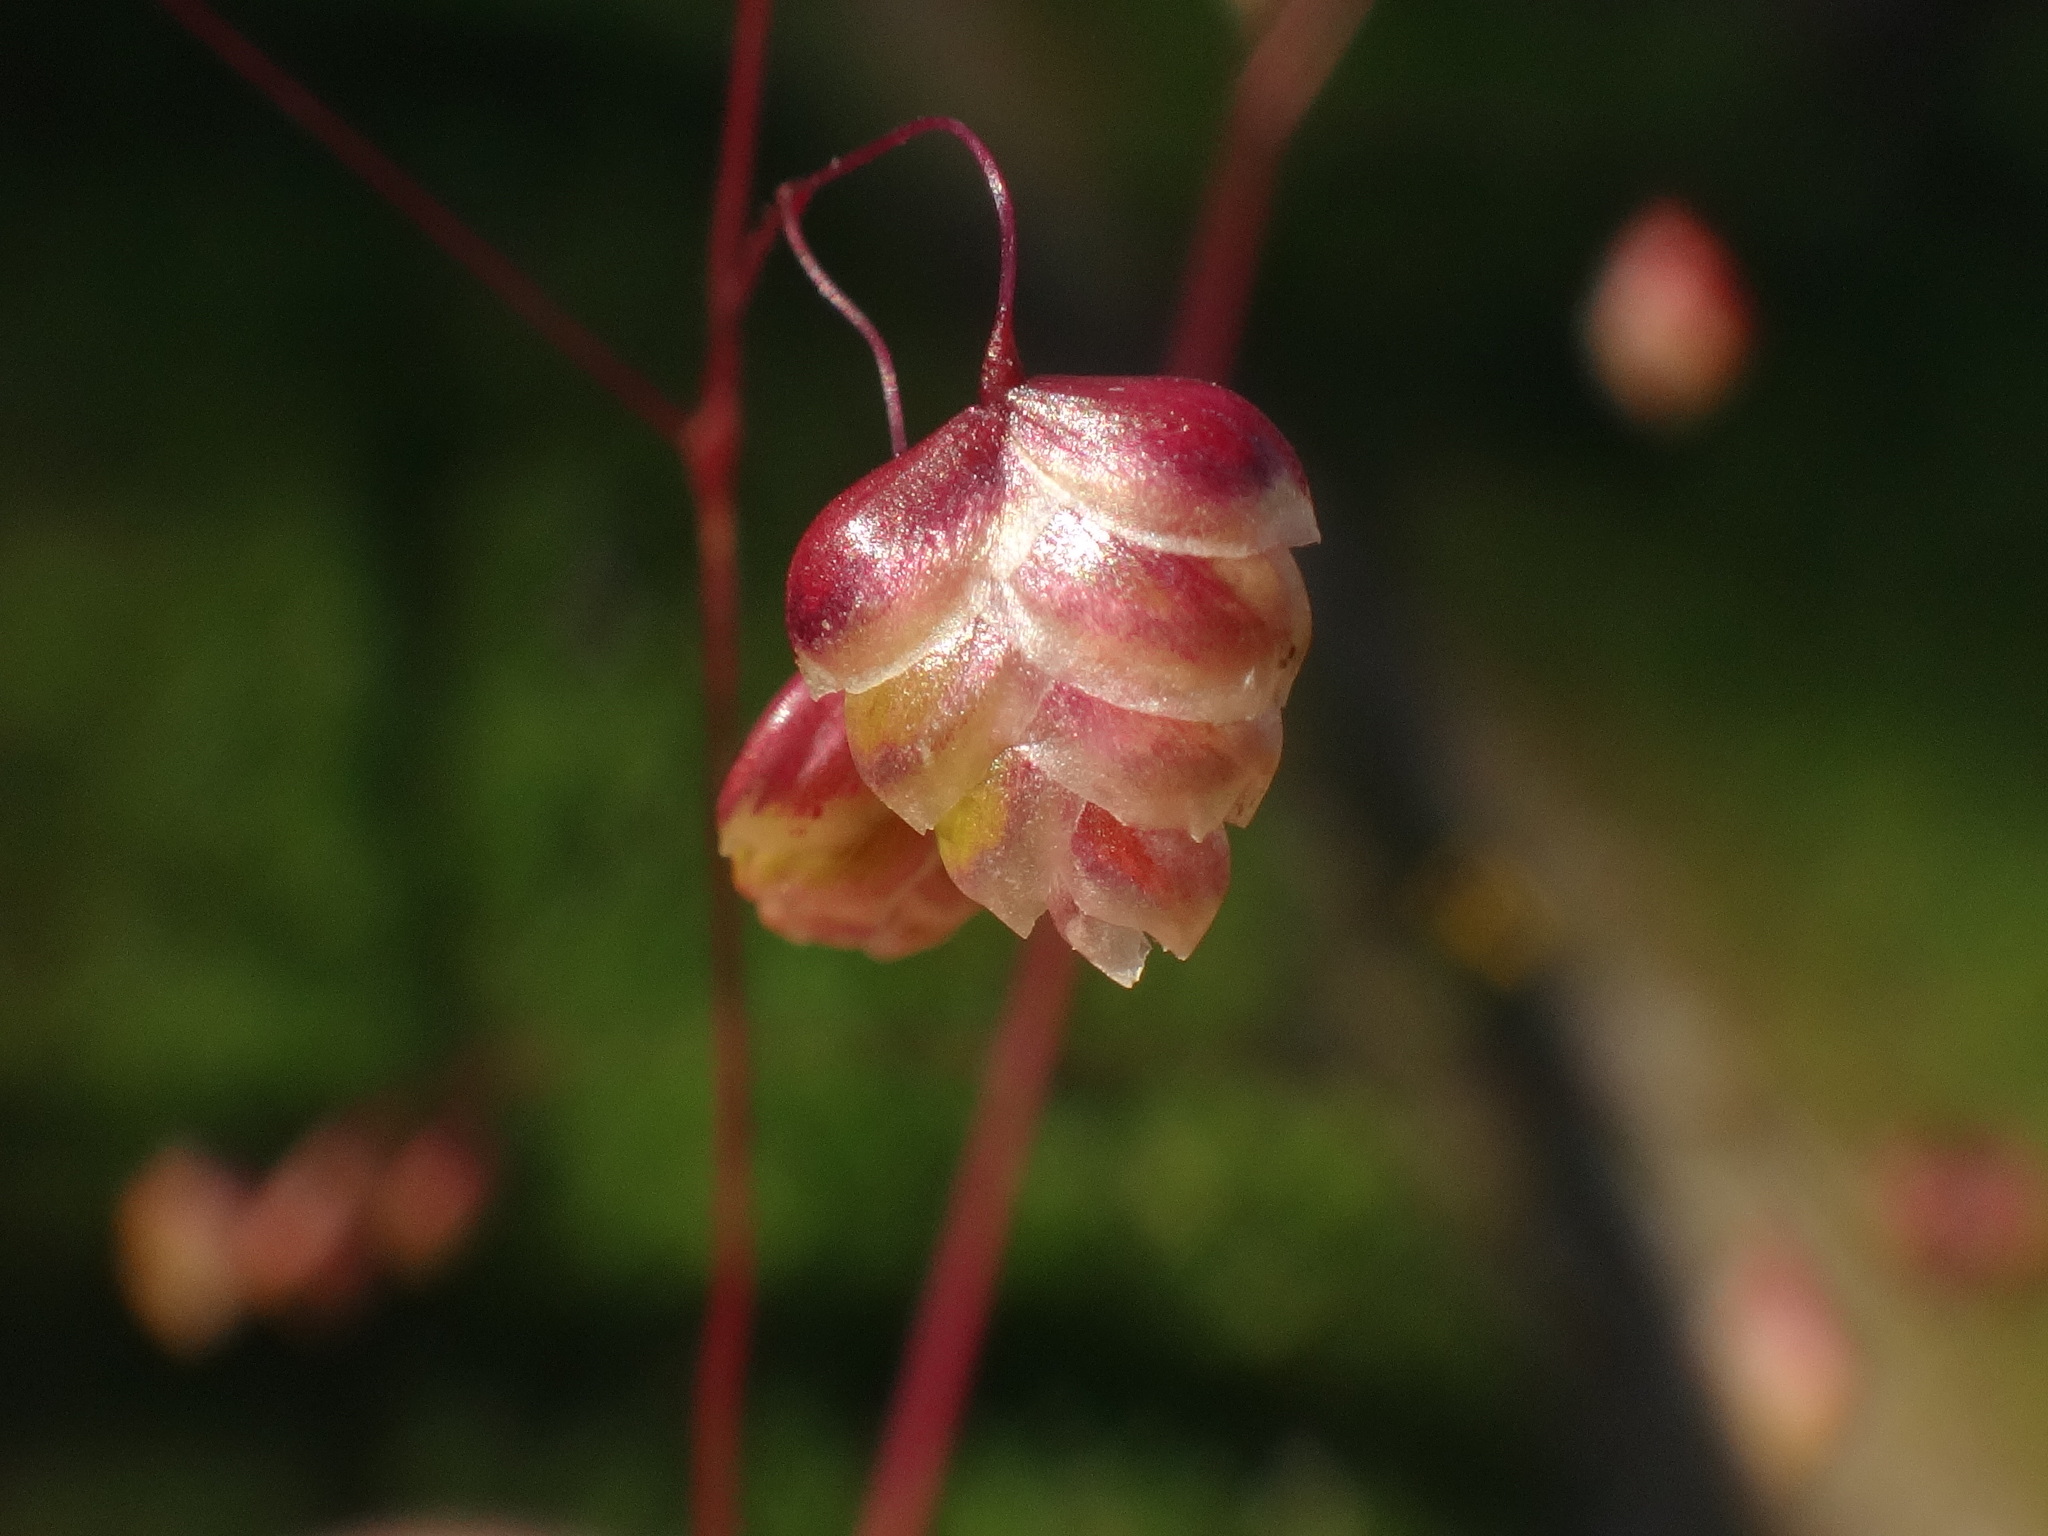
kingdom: Plantae
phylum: Tracheophyta
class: Liliopsida
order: Poales
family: Poaceae
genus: Briza
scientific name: Briza media
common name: Quaking grass
